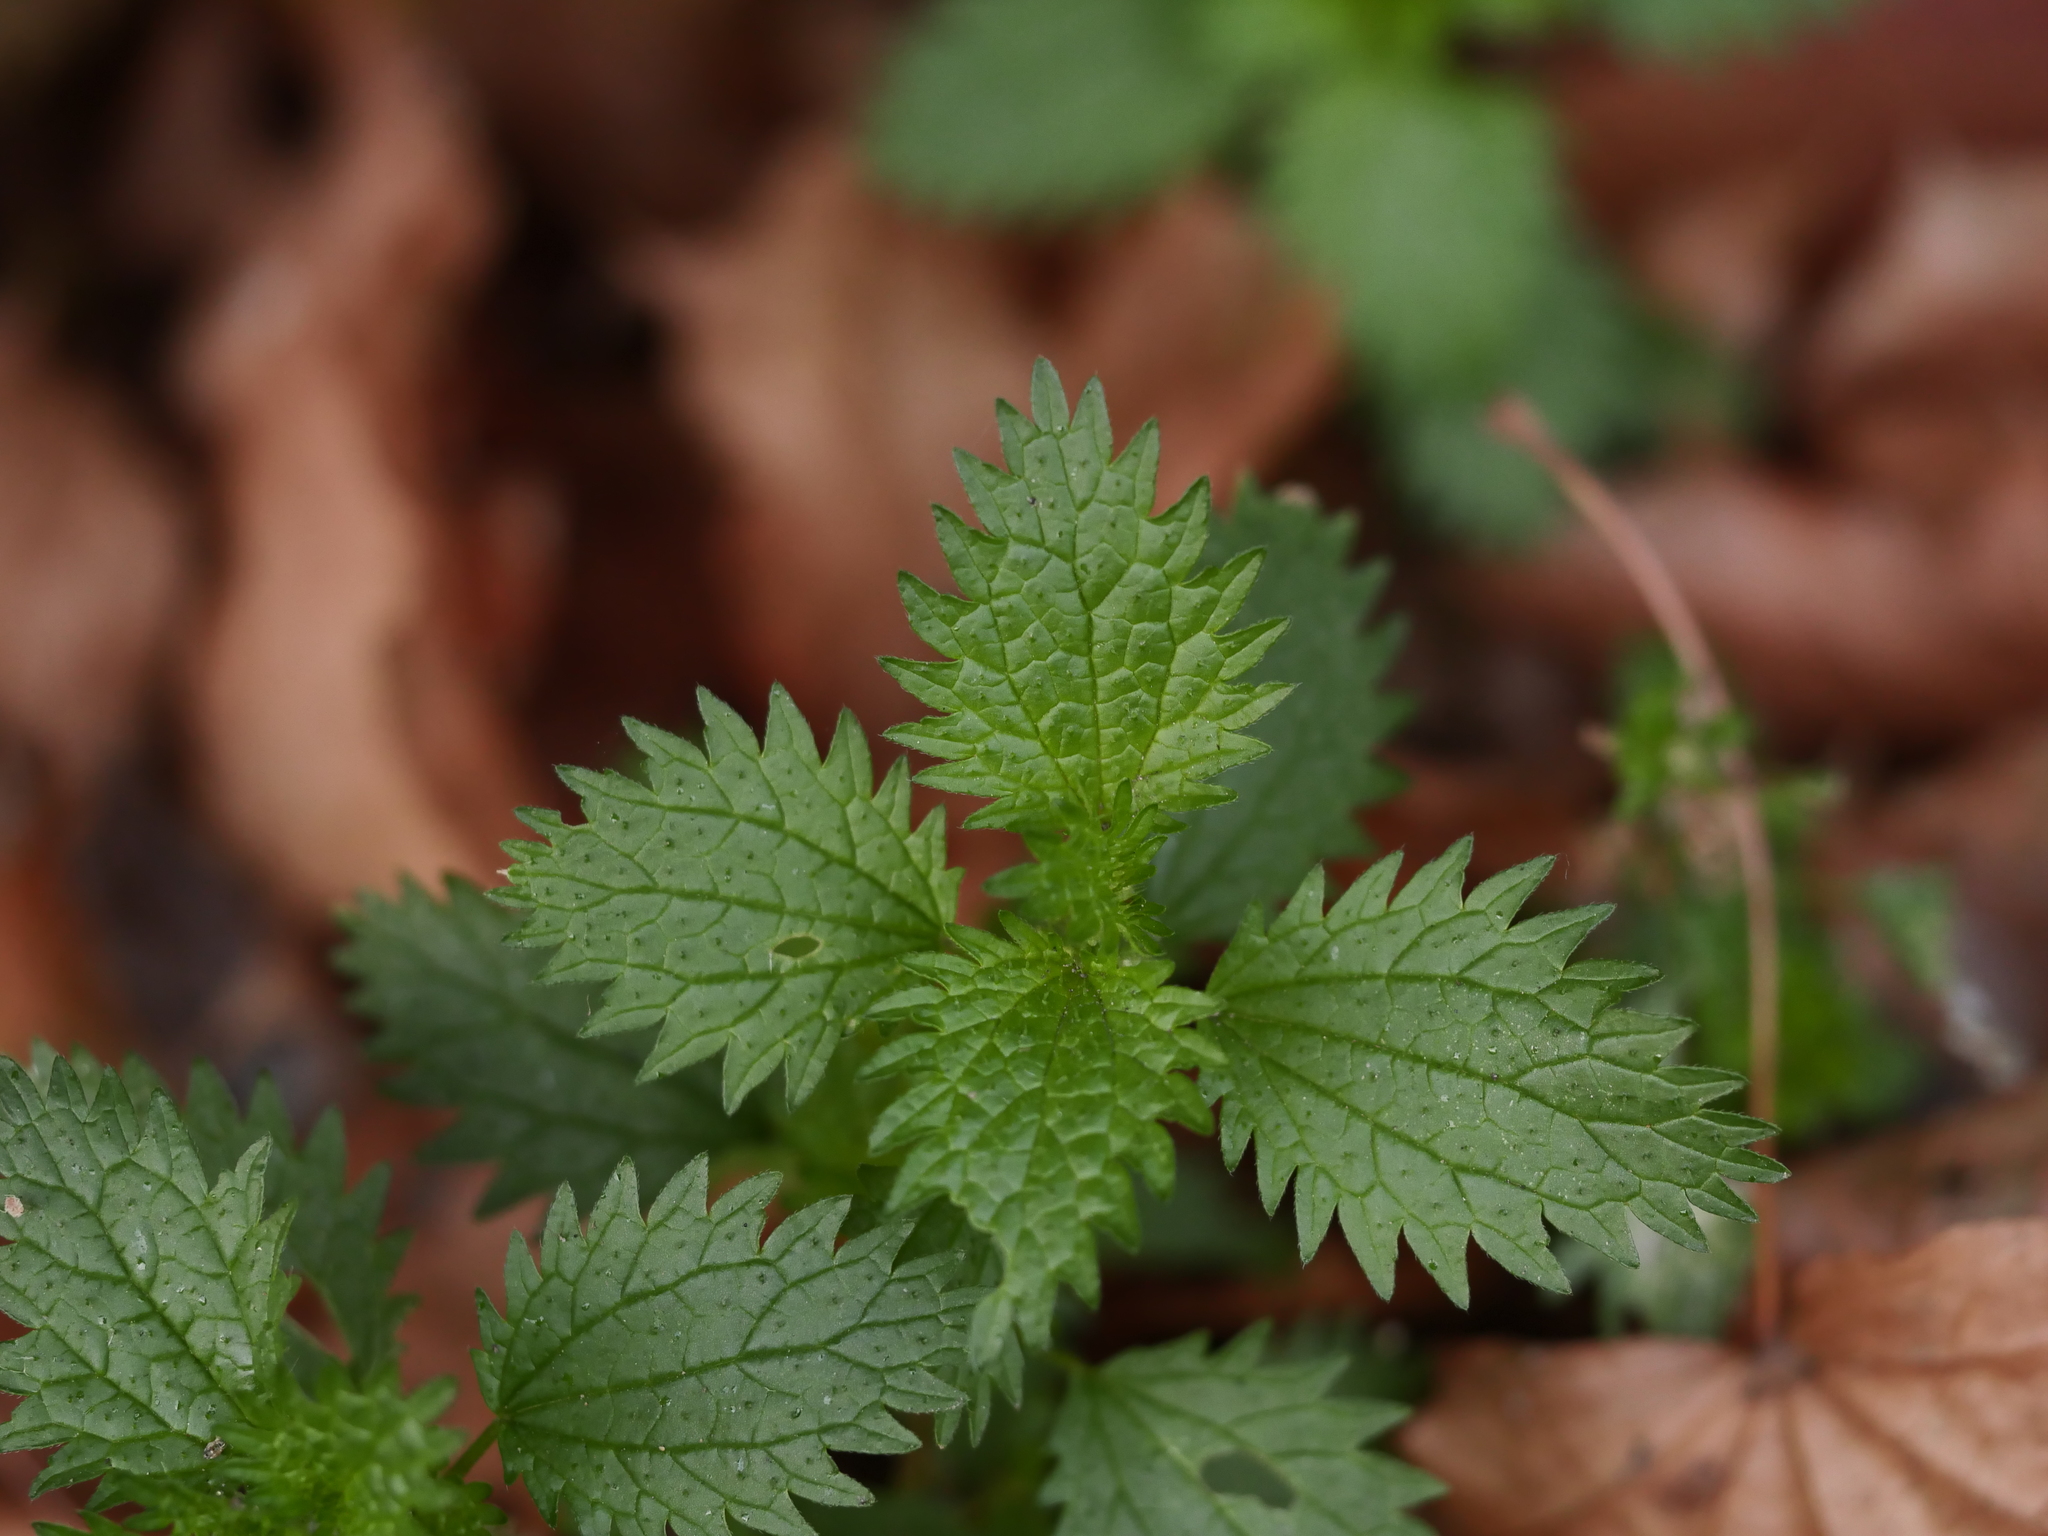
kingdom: Plantae
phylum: Tracheophyta
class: Magnoliopsida
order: Rosales
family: Urticaceae
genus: Urtica
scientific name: Urtica urens
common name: Dwarf nettle
